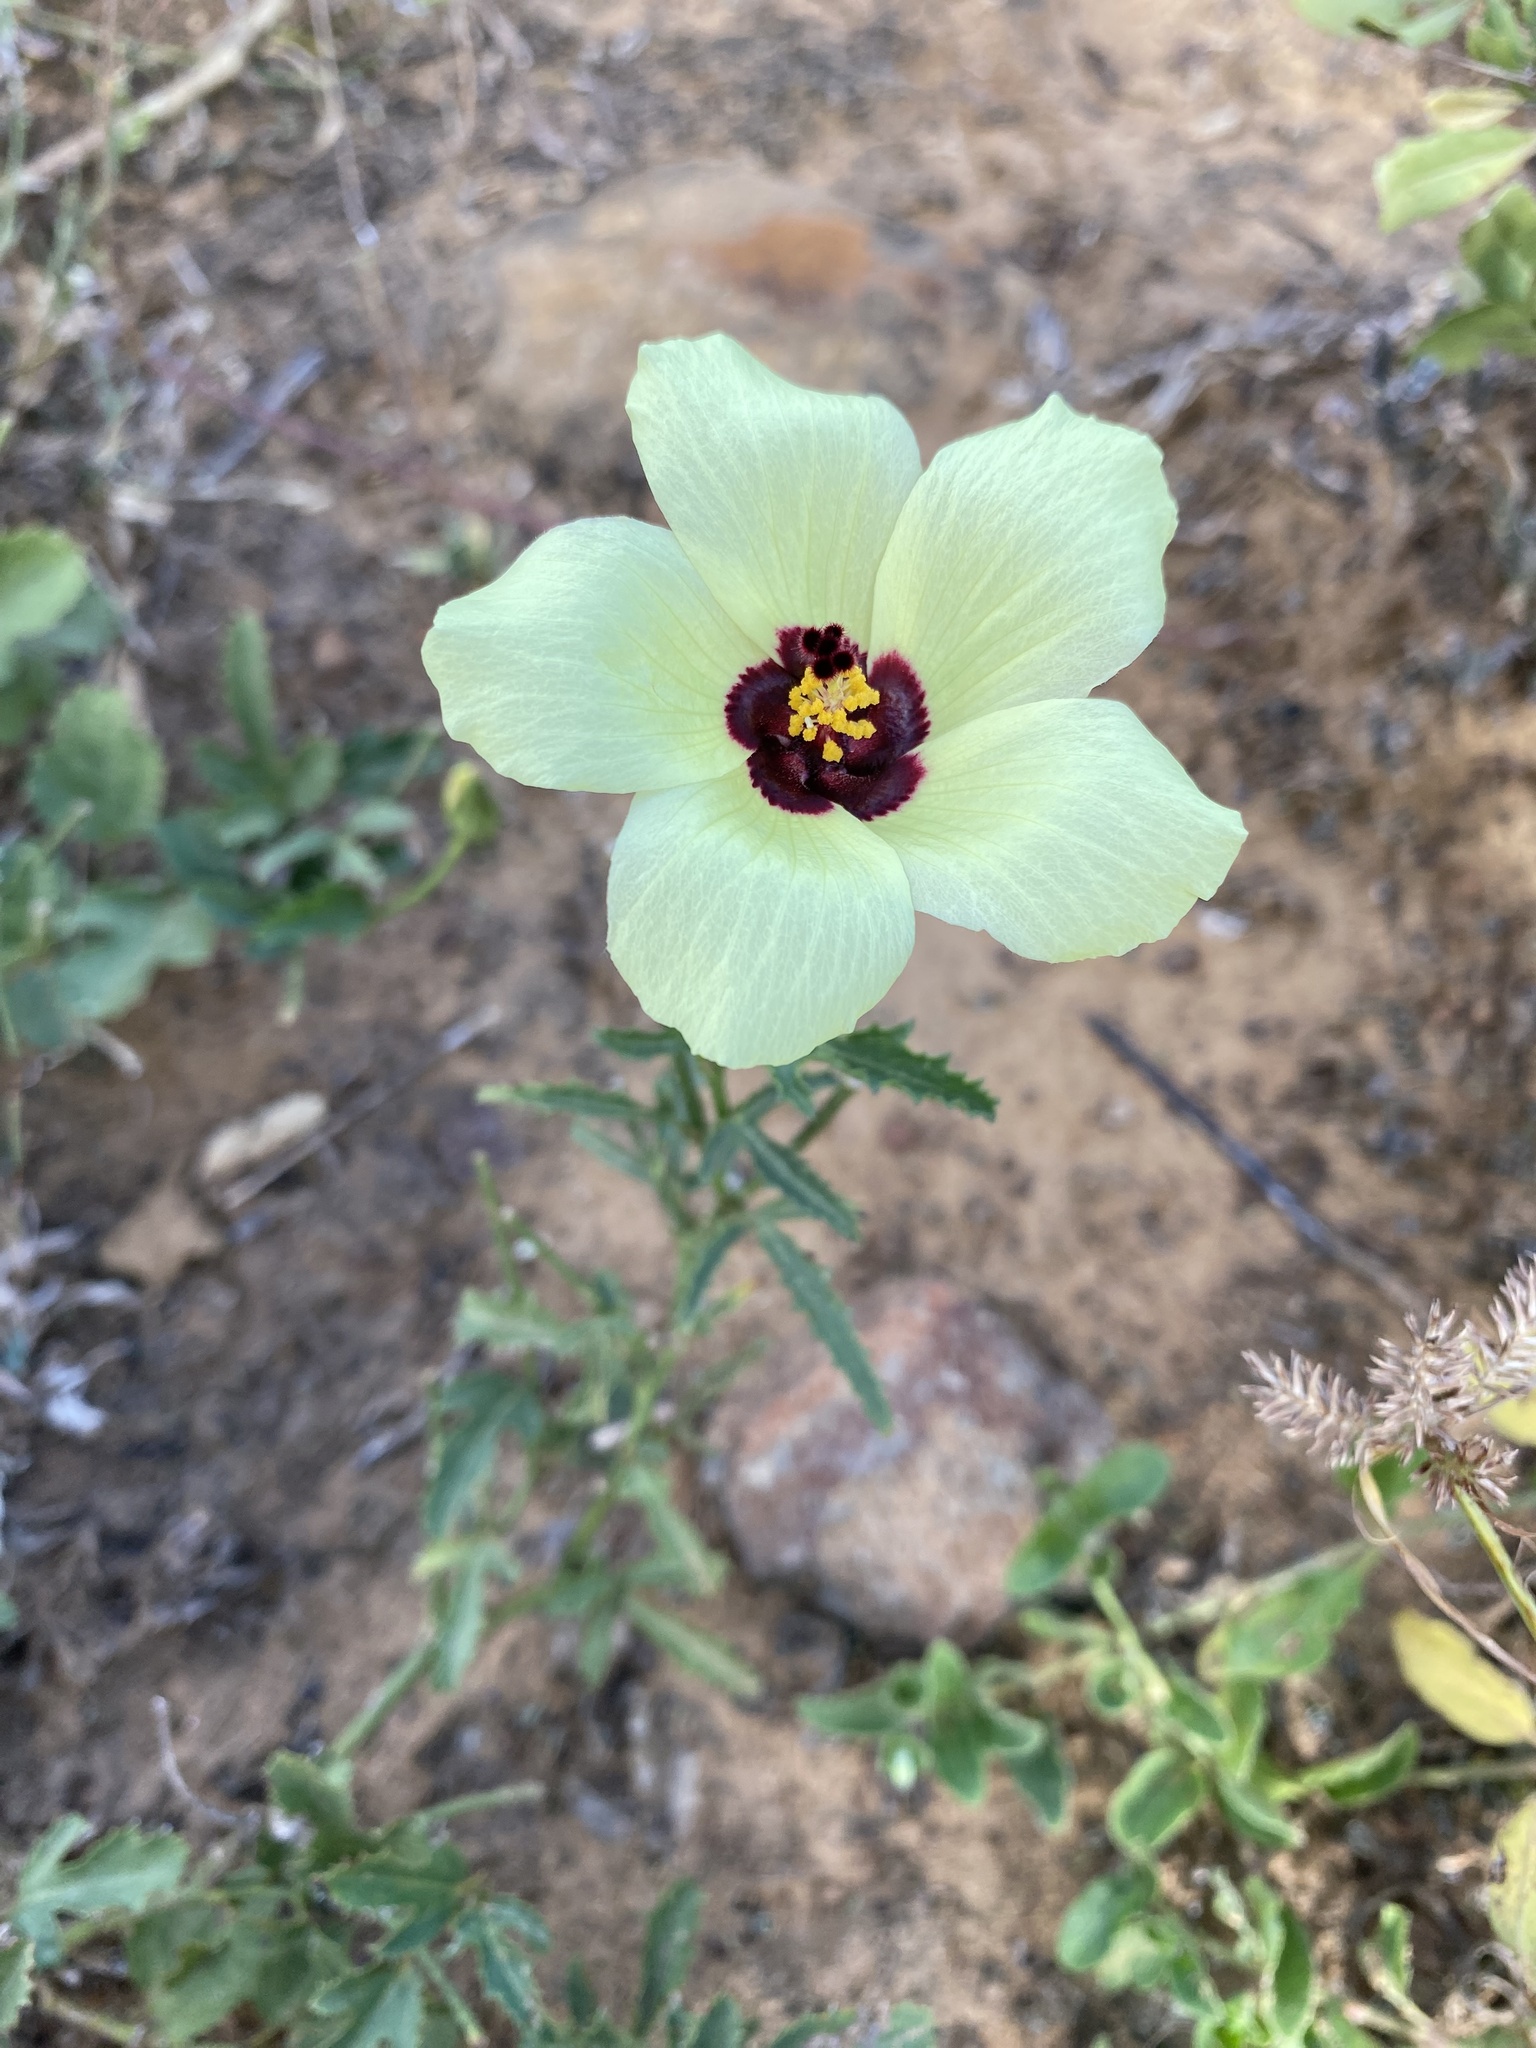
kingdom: Plantae
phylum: Tracheophyta
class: Magnoliopsida
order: Malvales
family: Malvaceae
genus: Hibiscus
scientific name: Hibiscus trionum
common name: Bladder ketmia
